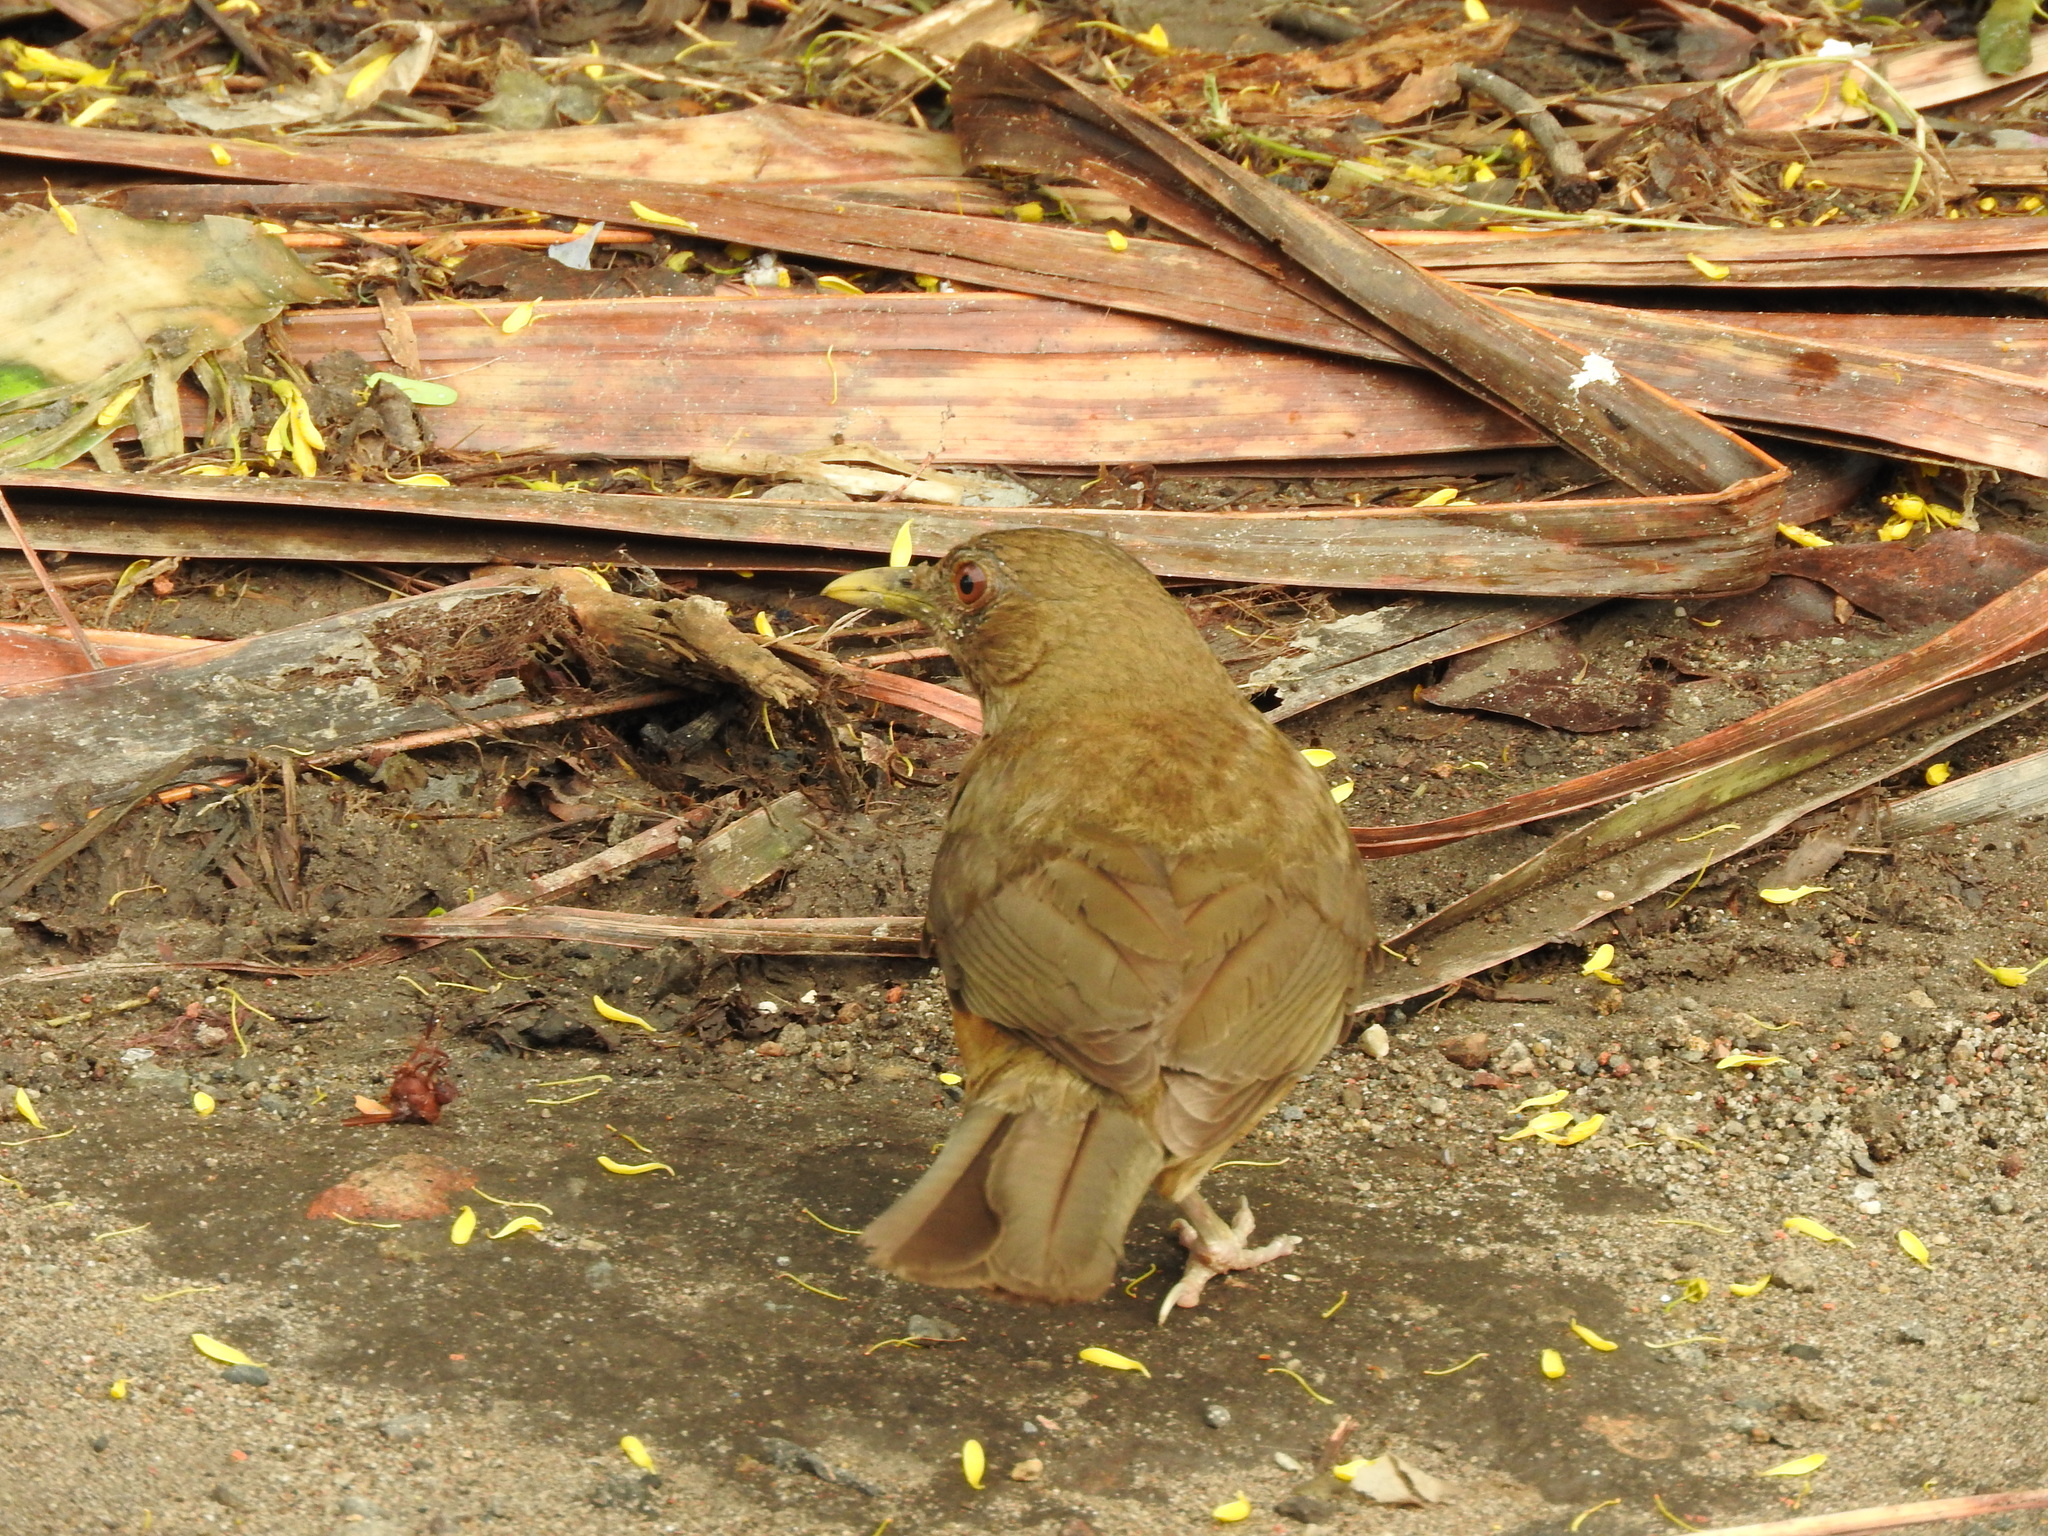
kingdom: Animalia
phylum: Chordata
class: Aves
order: Passeriformes
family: Turdidae
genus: Turdus
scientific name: Turdus grayi
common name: Clay-colored thrush
